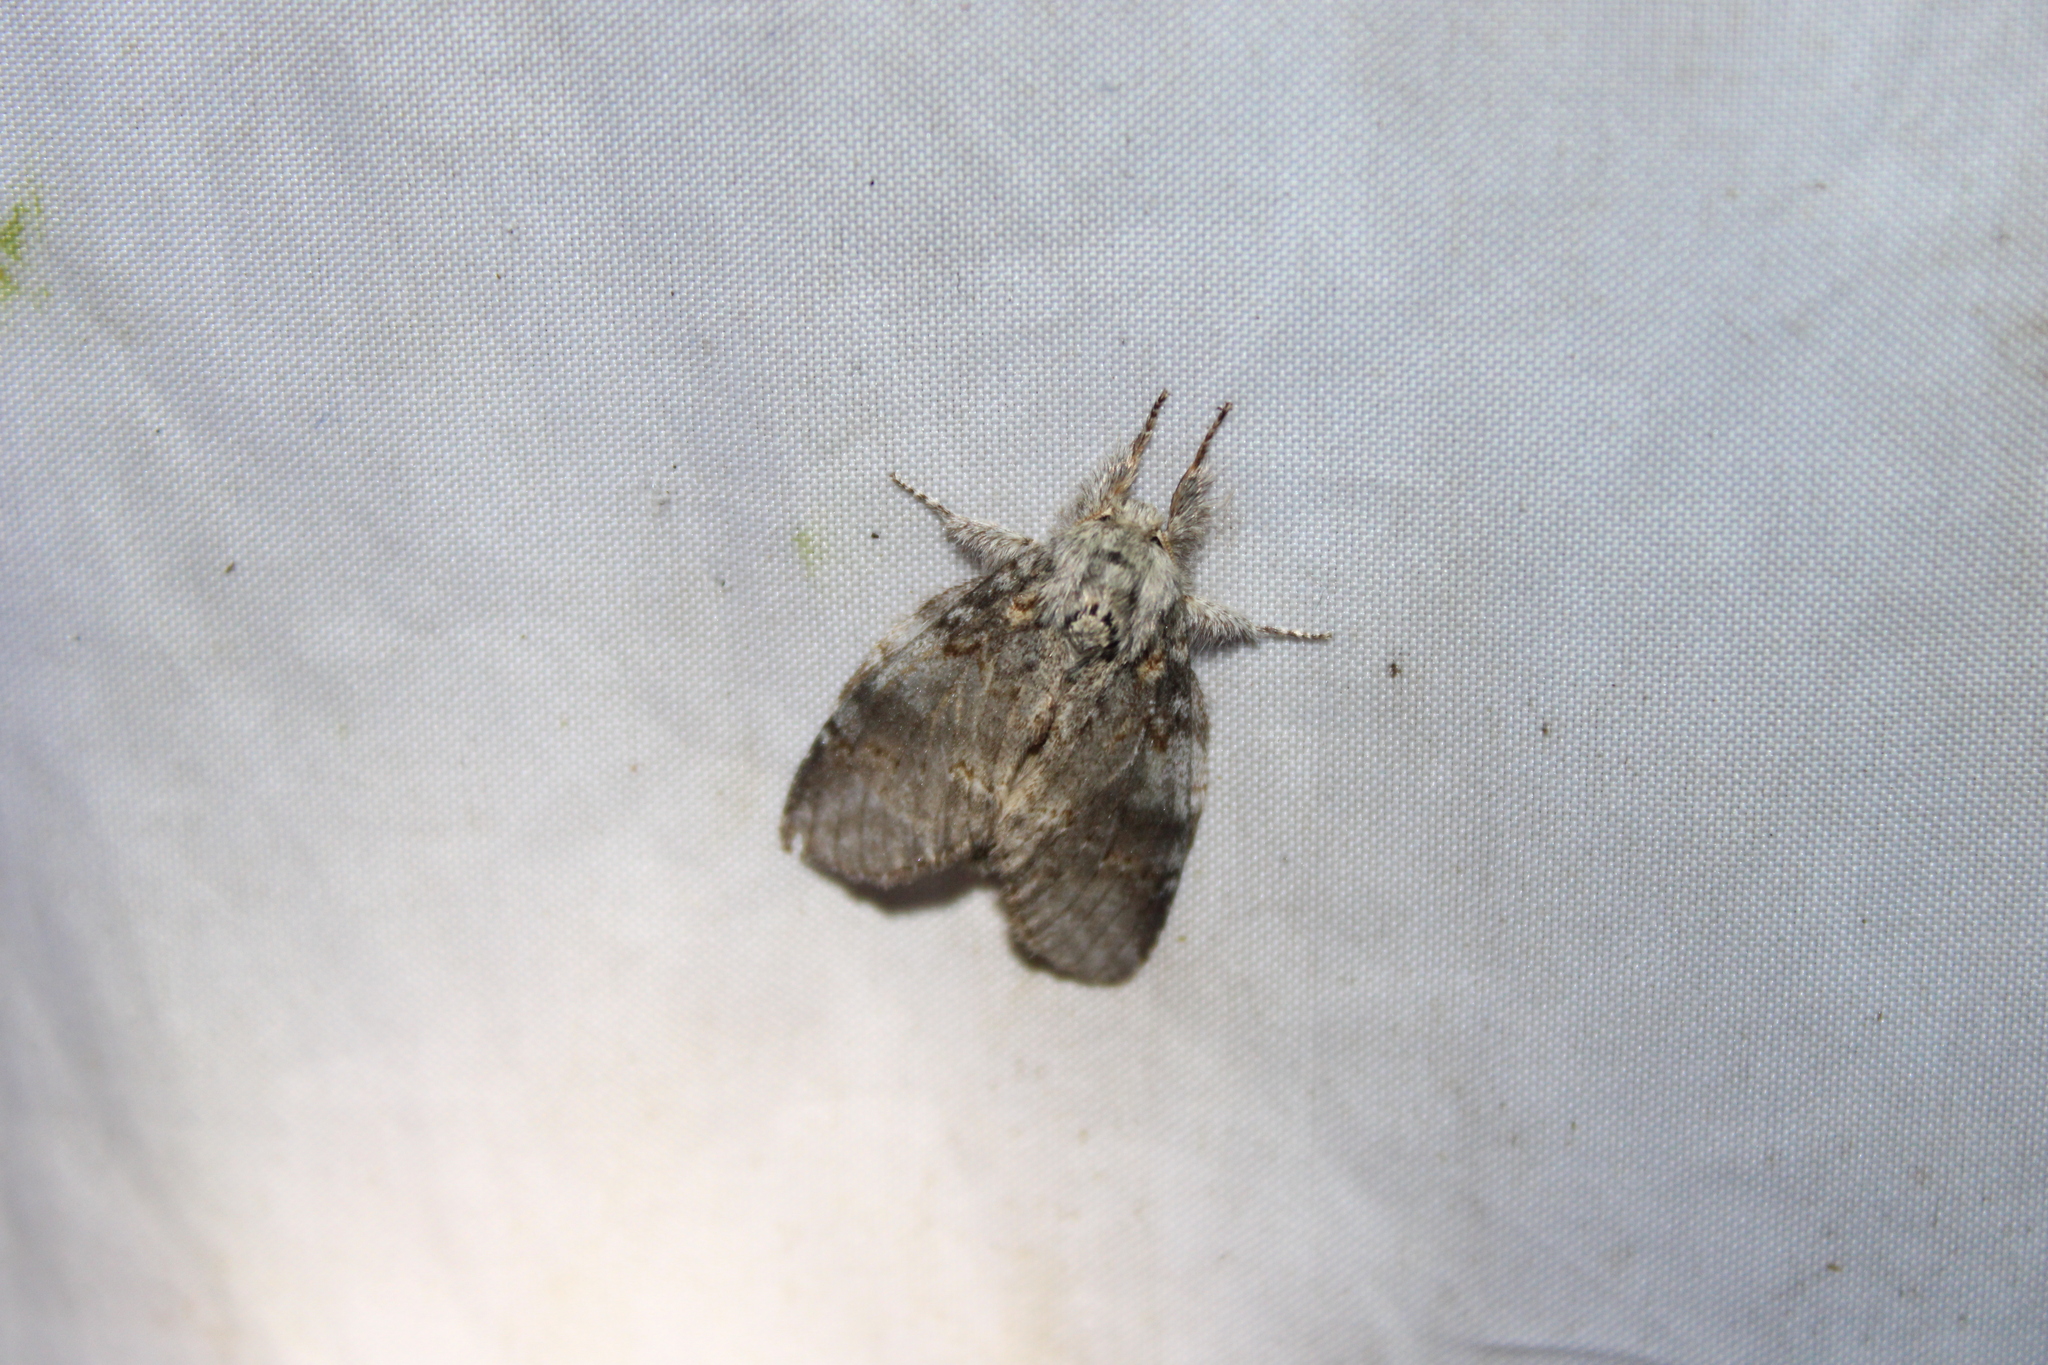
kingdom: Animalia
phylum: Arthropoda
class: Insecta
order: Lepidoptera
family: Notodontidae
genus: Peridea
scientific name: Peridea angulosa
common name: Angulose prominent
